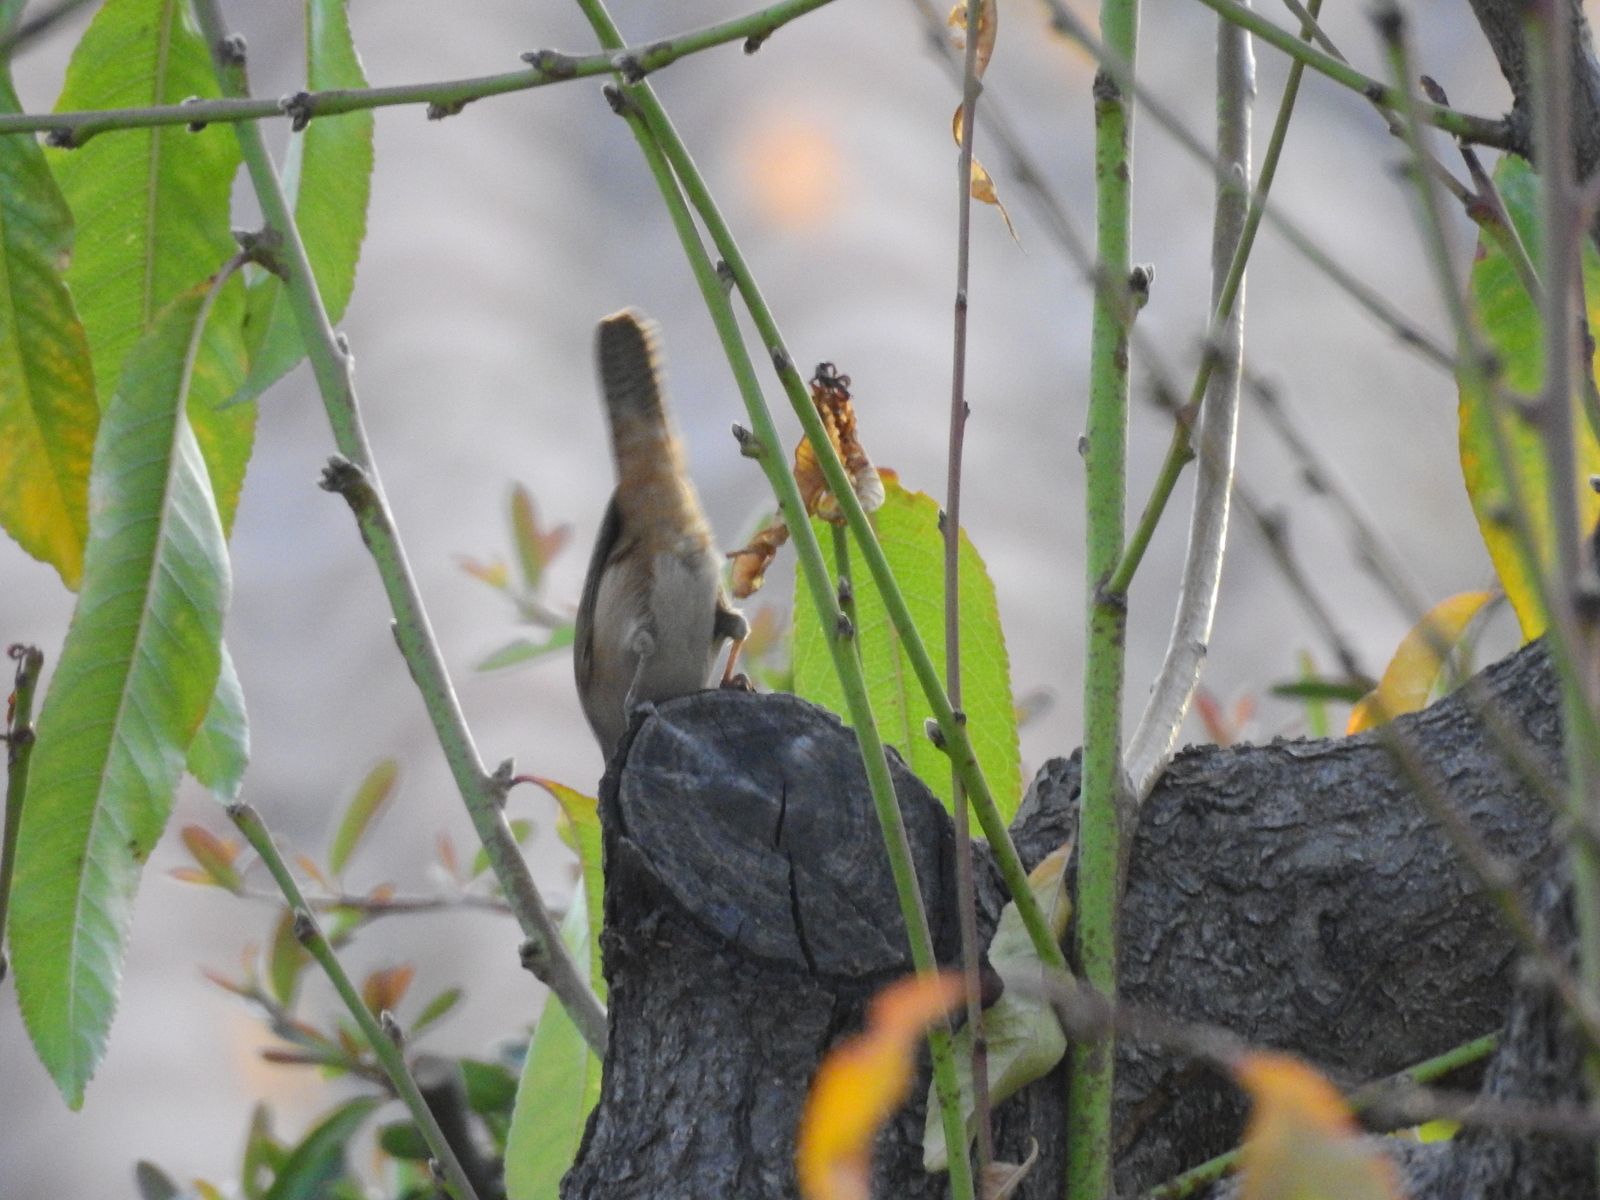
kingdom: Animalia
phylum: Chordata
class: Aves
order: Passeriformes
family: Troglodytidae
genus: Troglodytes
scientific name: Troglodytes aedon
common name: House wren
